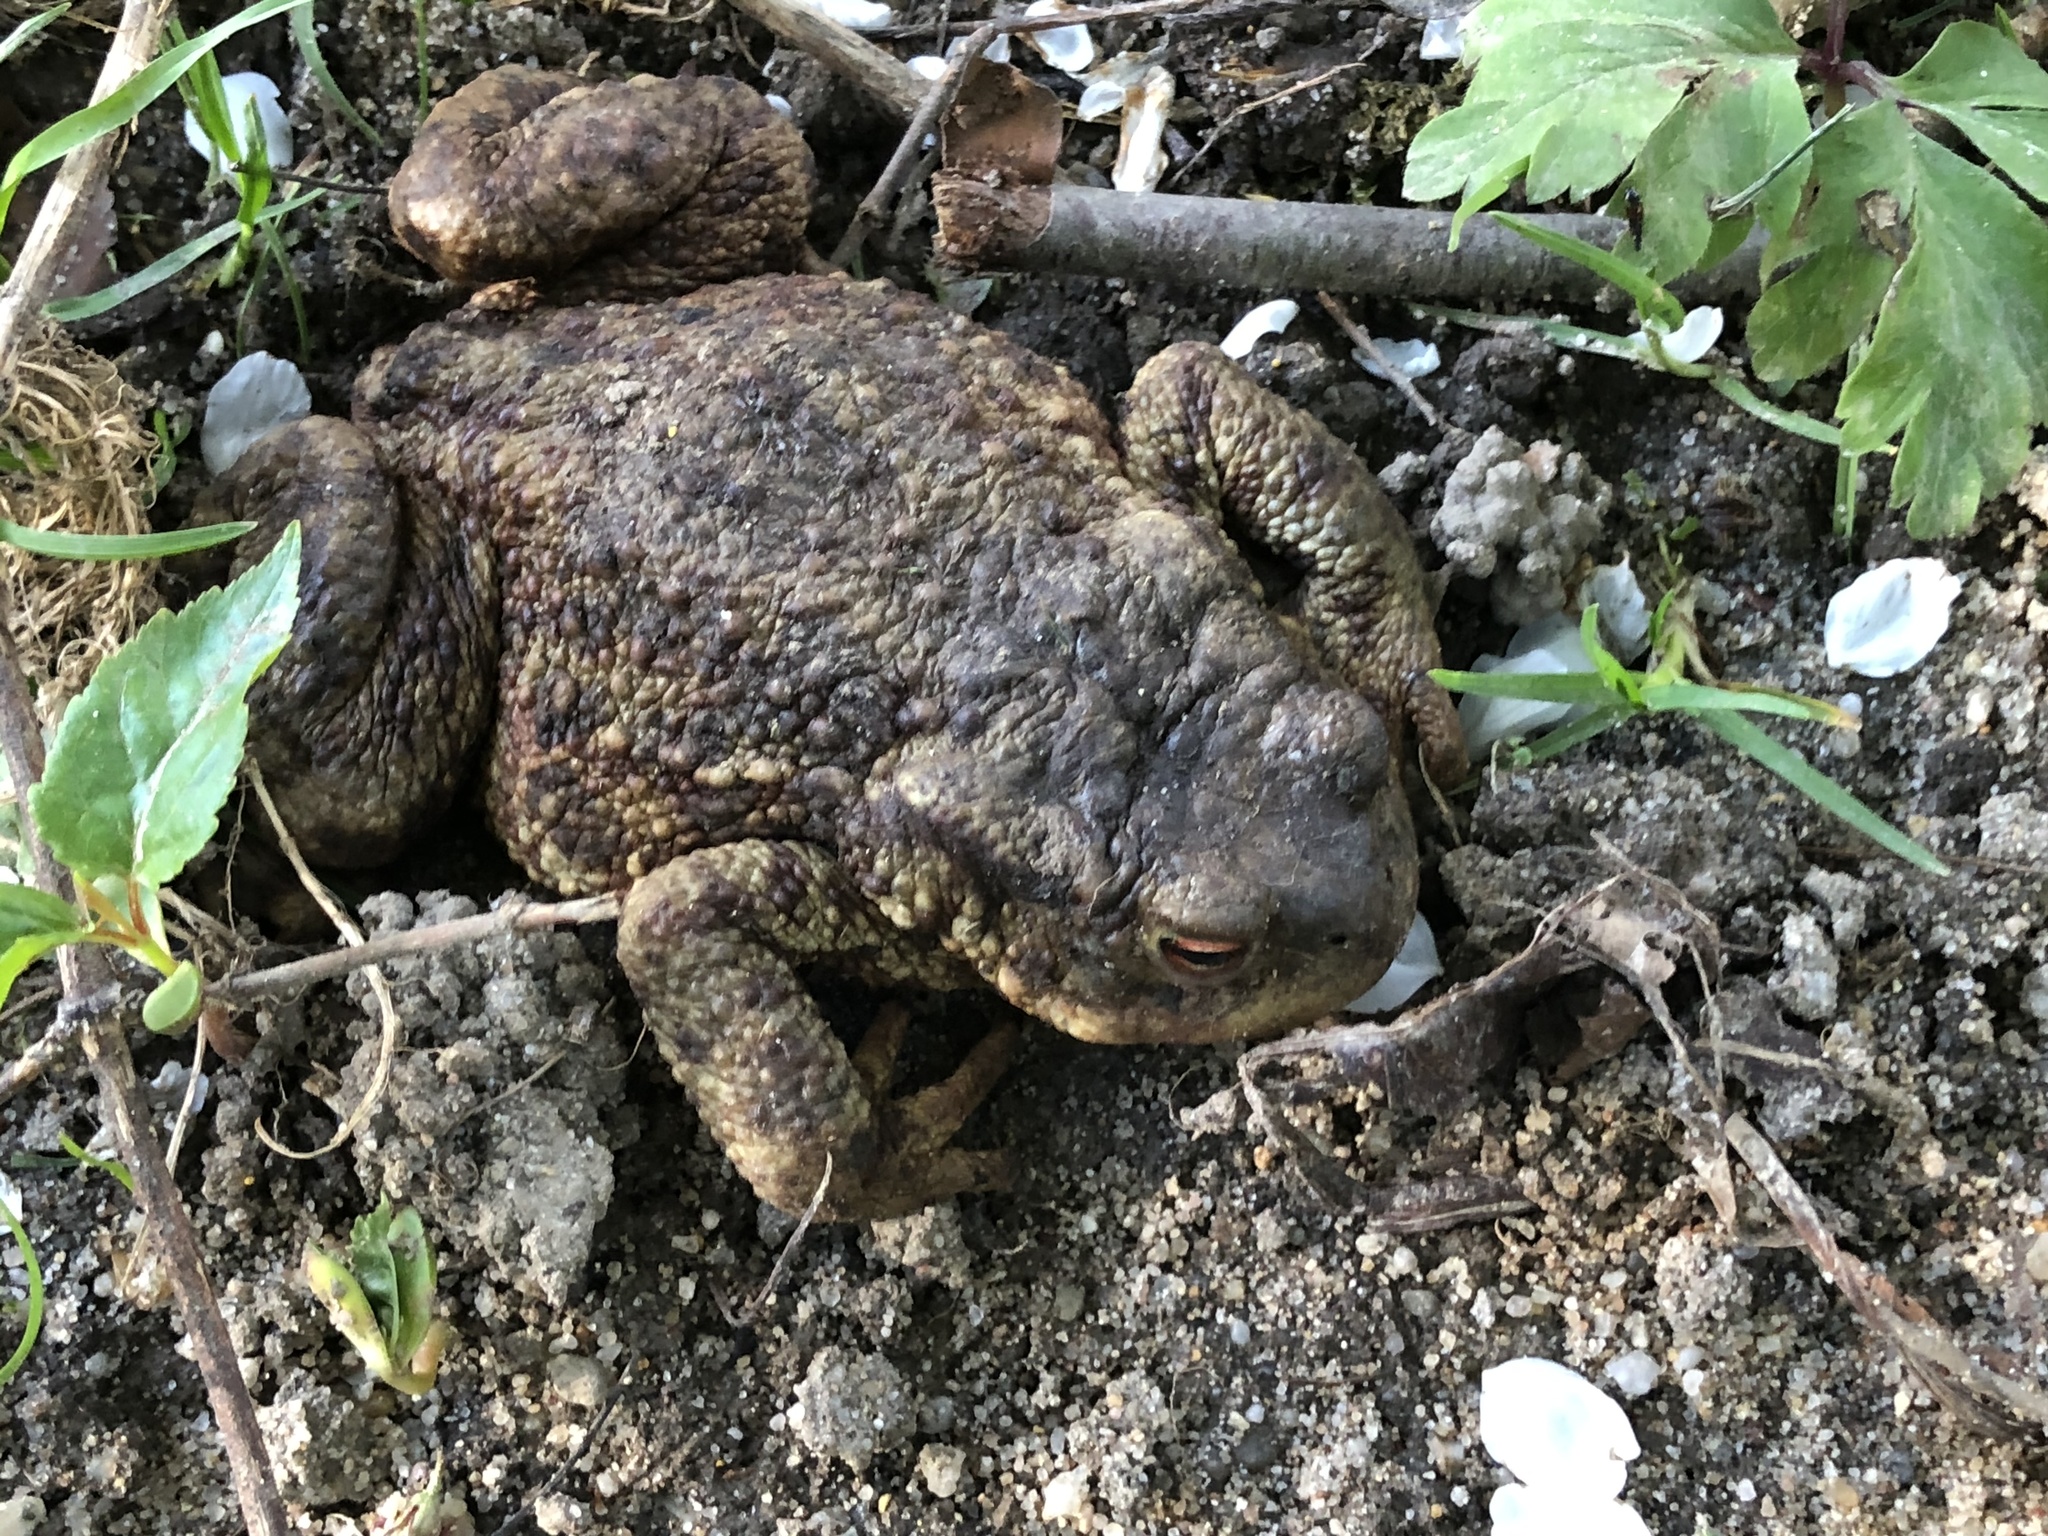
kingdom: Animalia
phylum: Chordata
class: Amphibia
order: Anura
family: Bufonidae
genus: Bufo
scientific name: Bufo bufo
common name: Common toad
